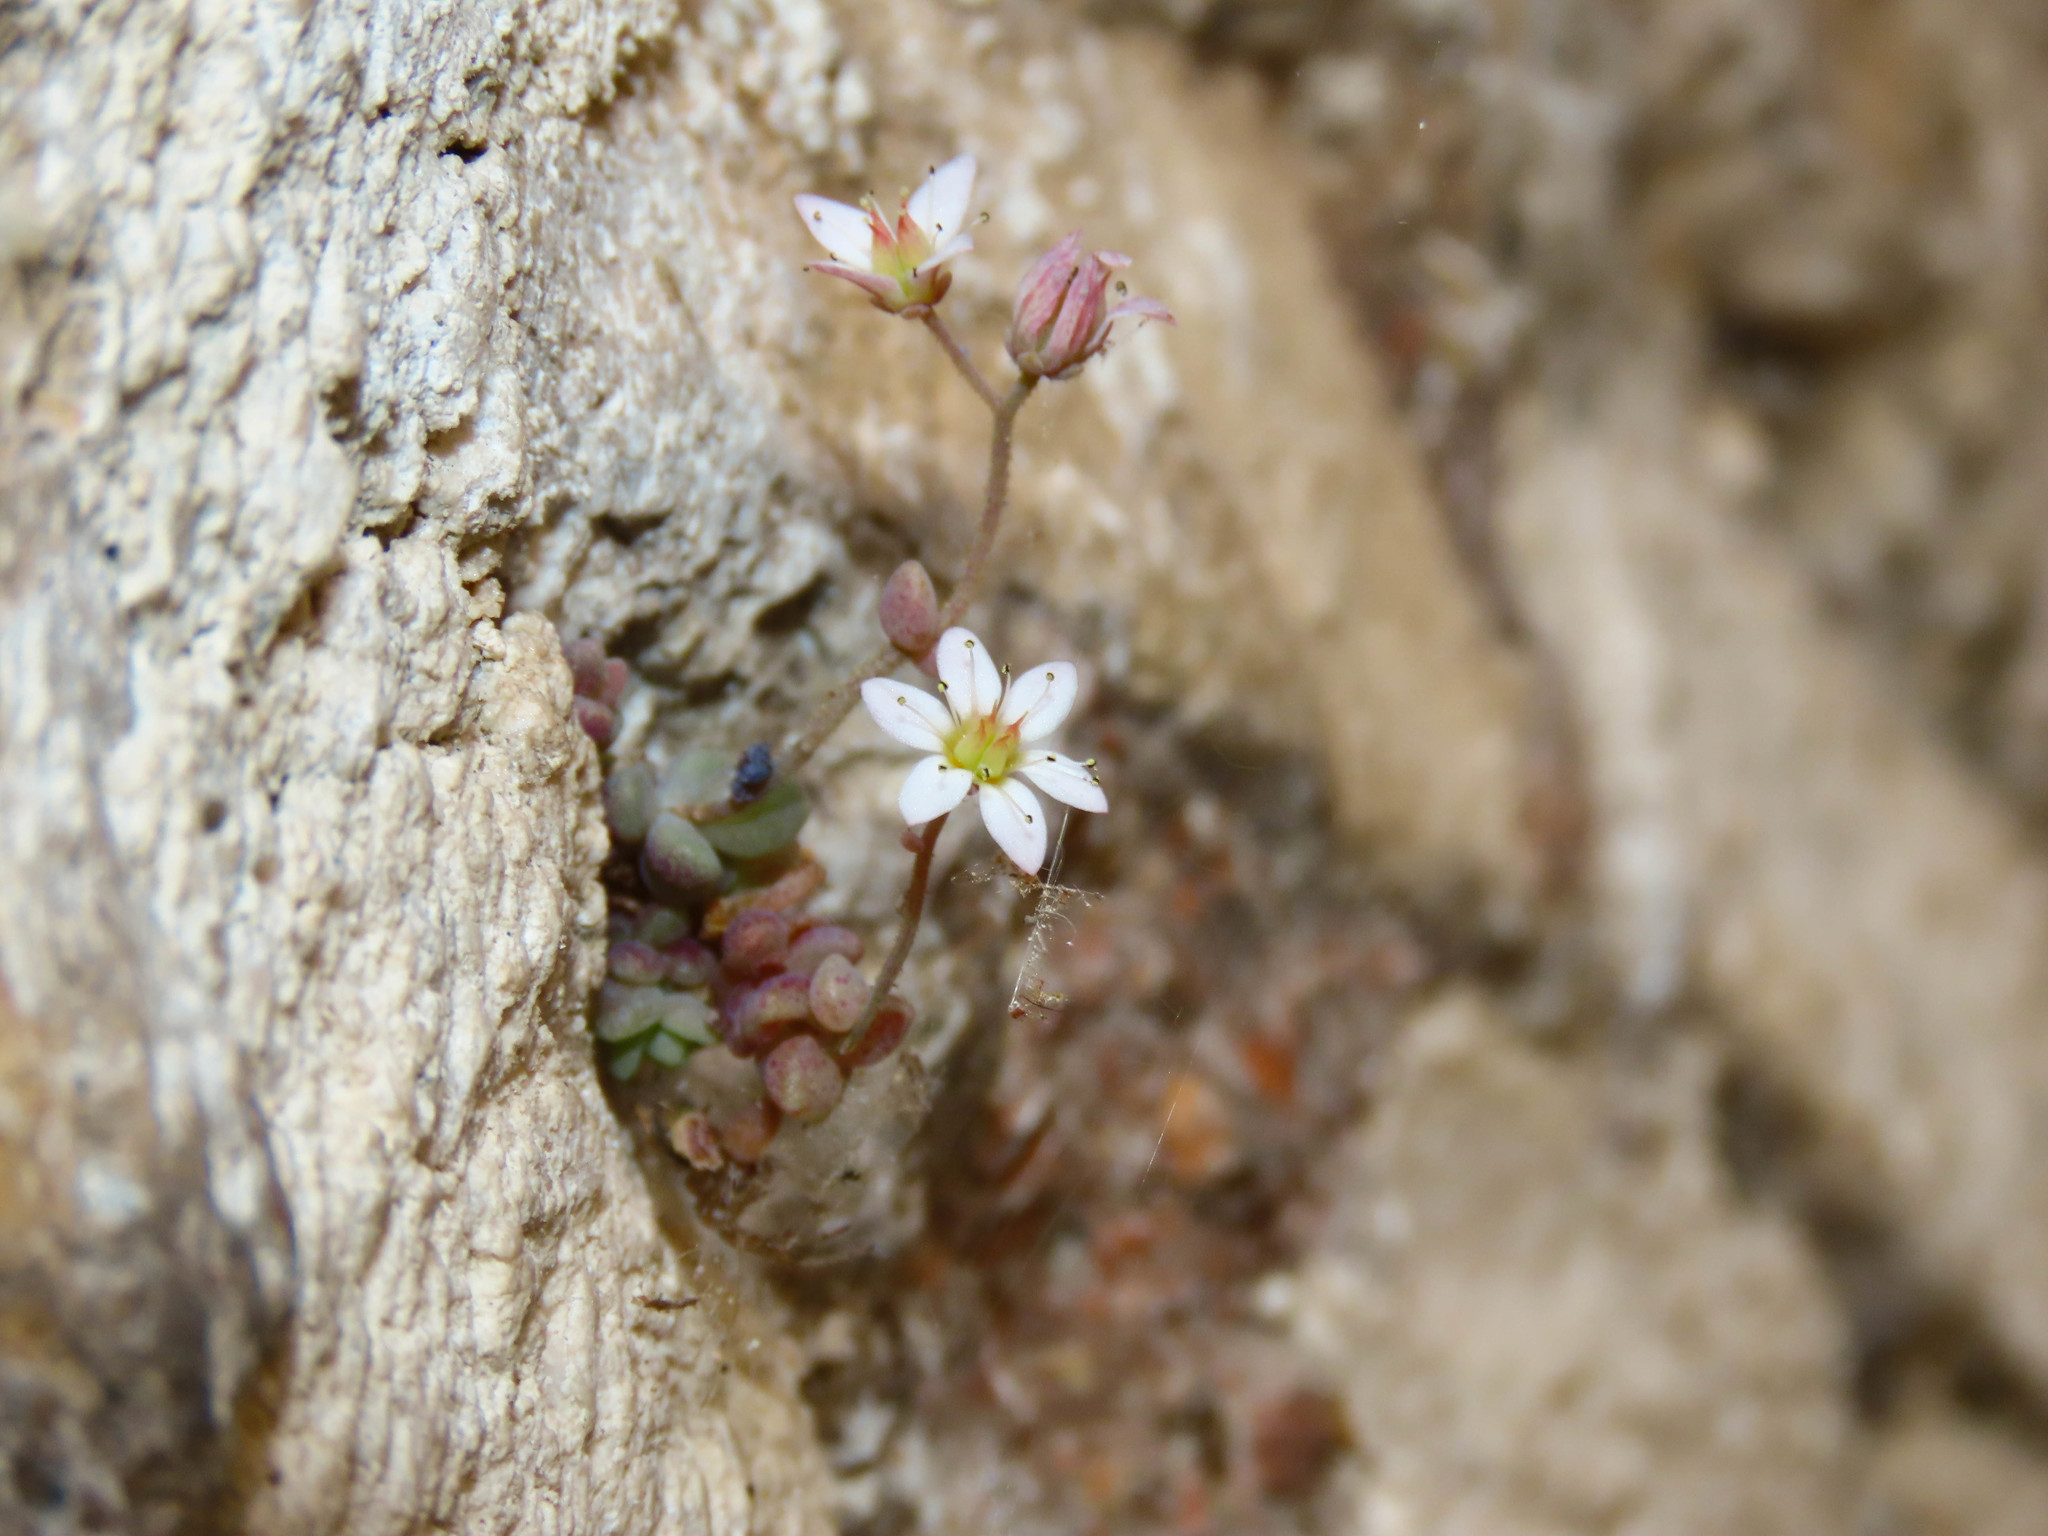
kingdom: Plantae
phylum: Tracheophyta
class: Magnoliopsida
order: Saxifragales
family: Crassulaceae
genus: Sedum
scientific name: Sedum dasyphyllum
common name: Thick-leaf stonecrop
